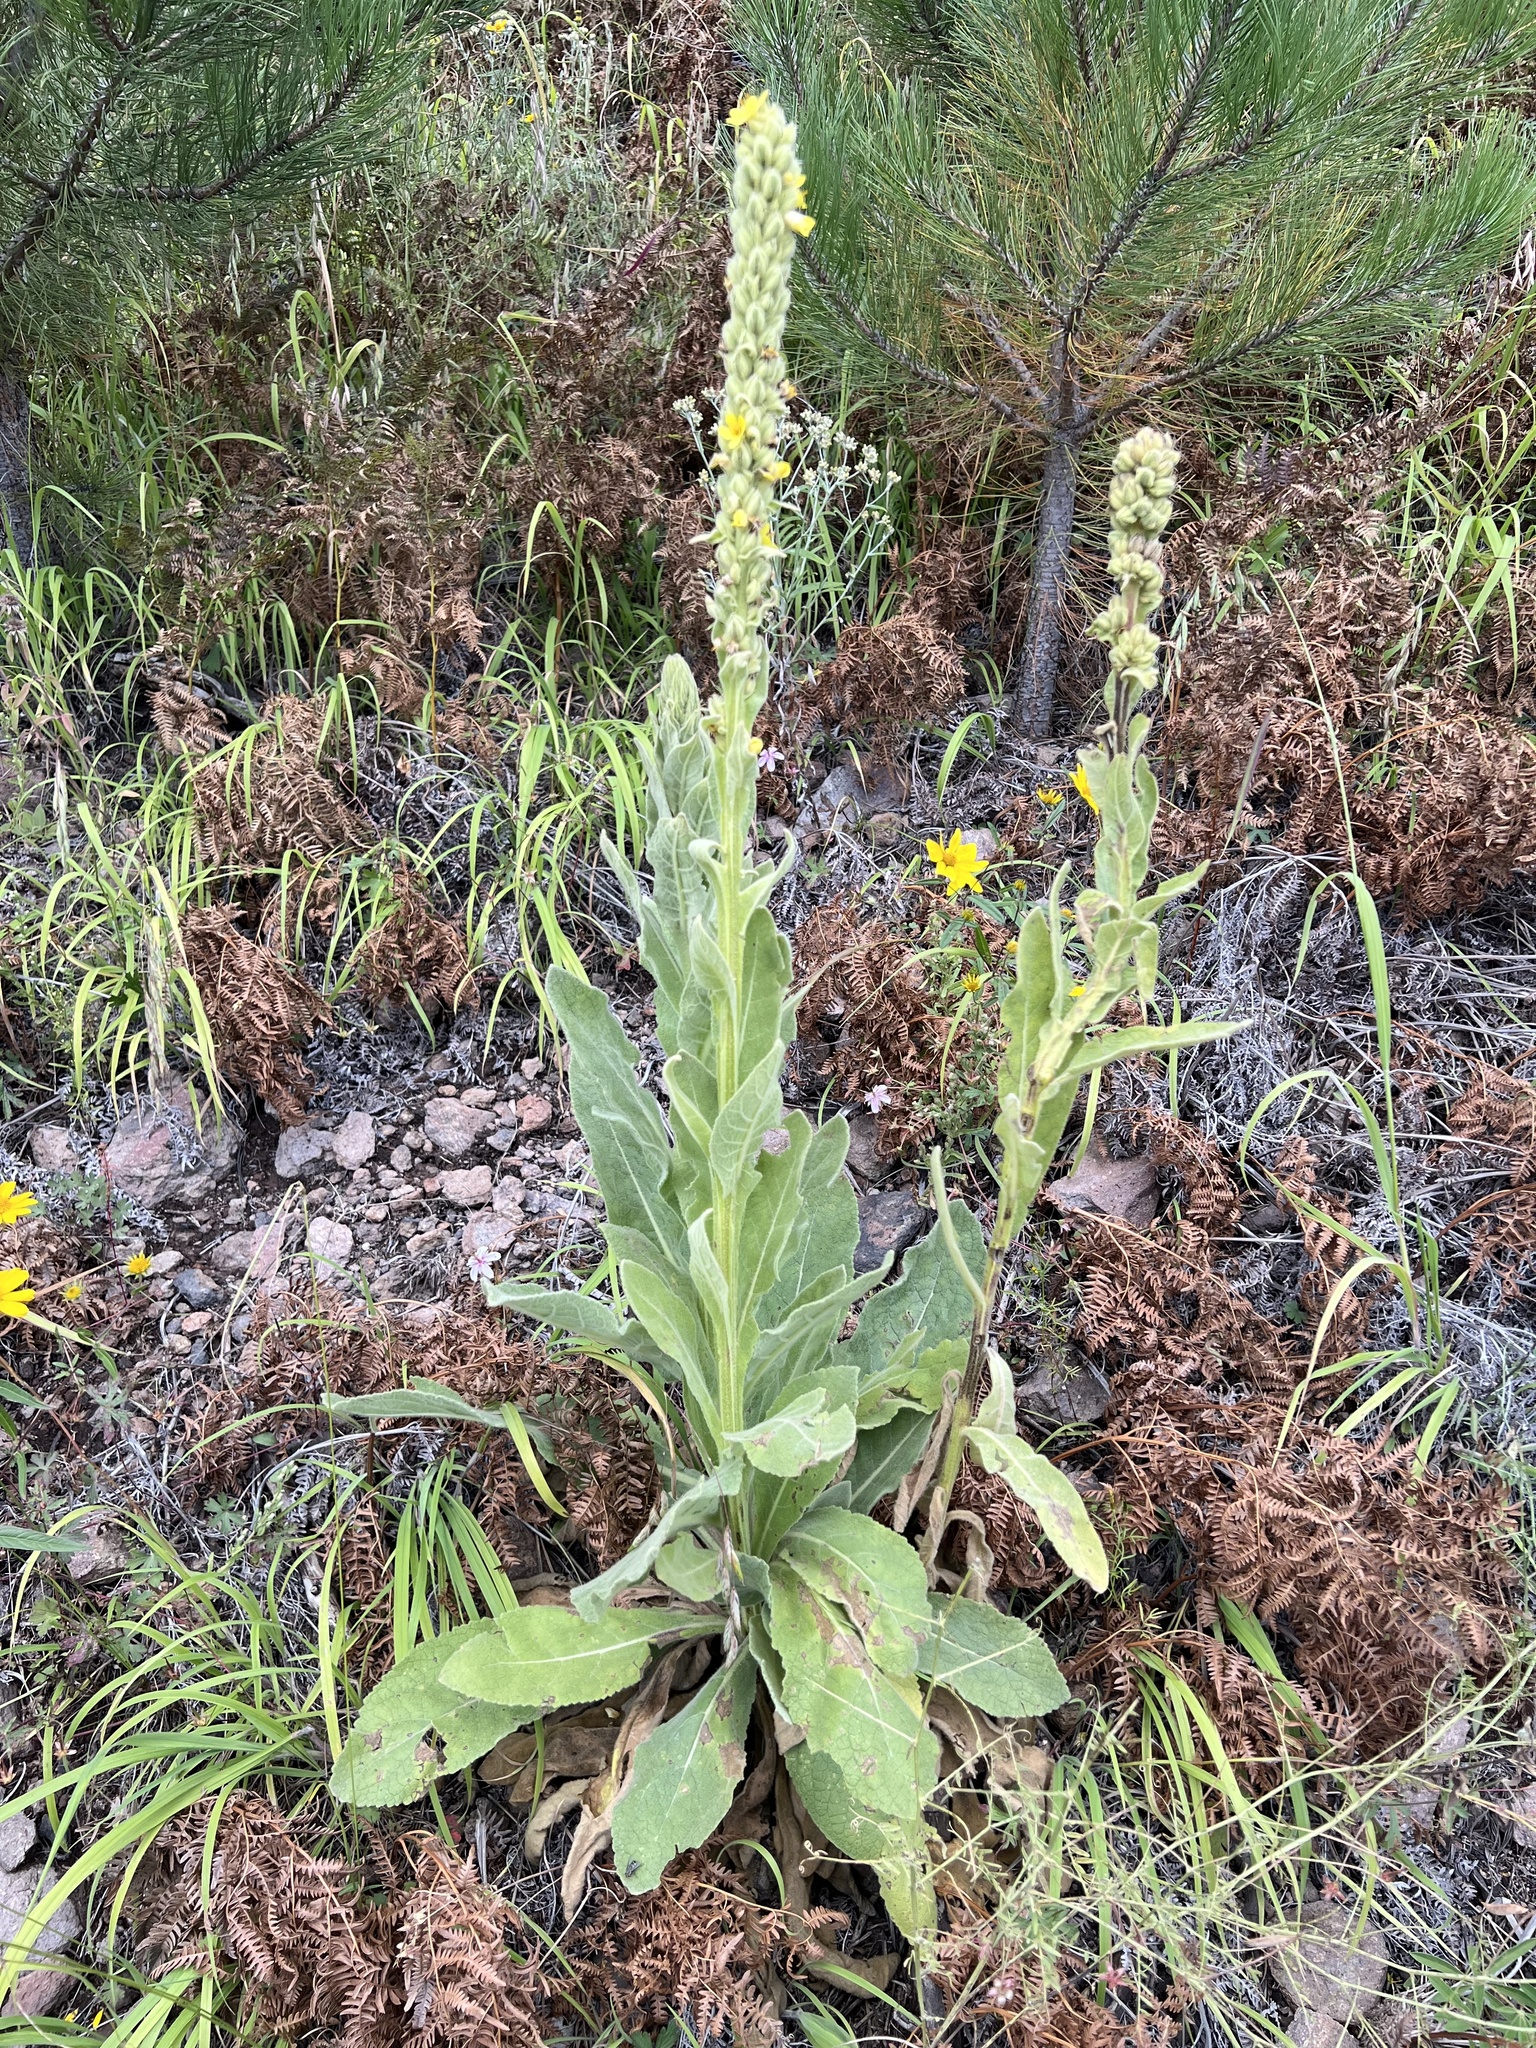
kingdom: Plantae
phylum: Tracheophyta
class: Magnoliopsida
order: Lamiales
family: Scrophulariaceae
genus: Verbascum
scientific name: Verbascum thapsus
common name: Common mullein
